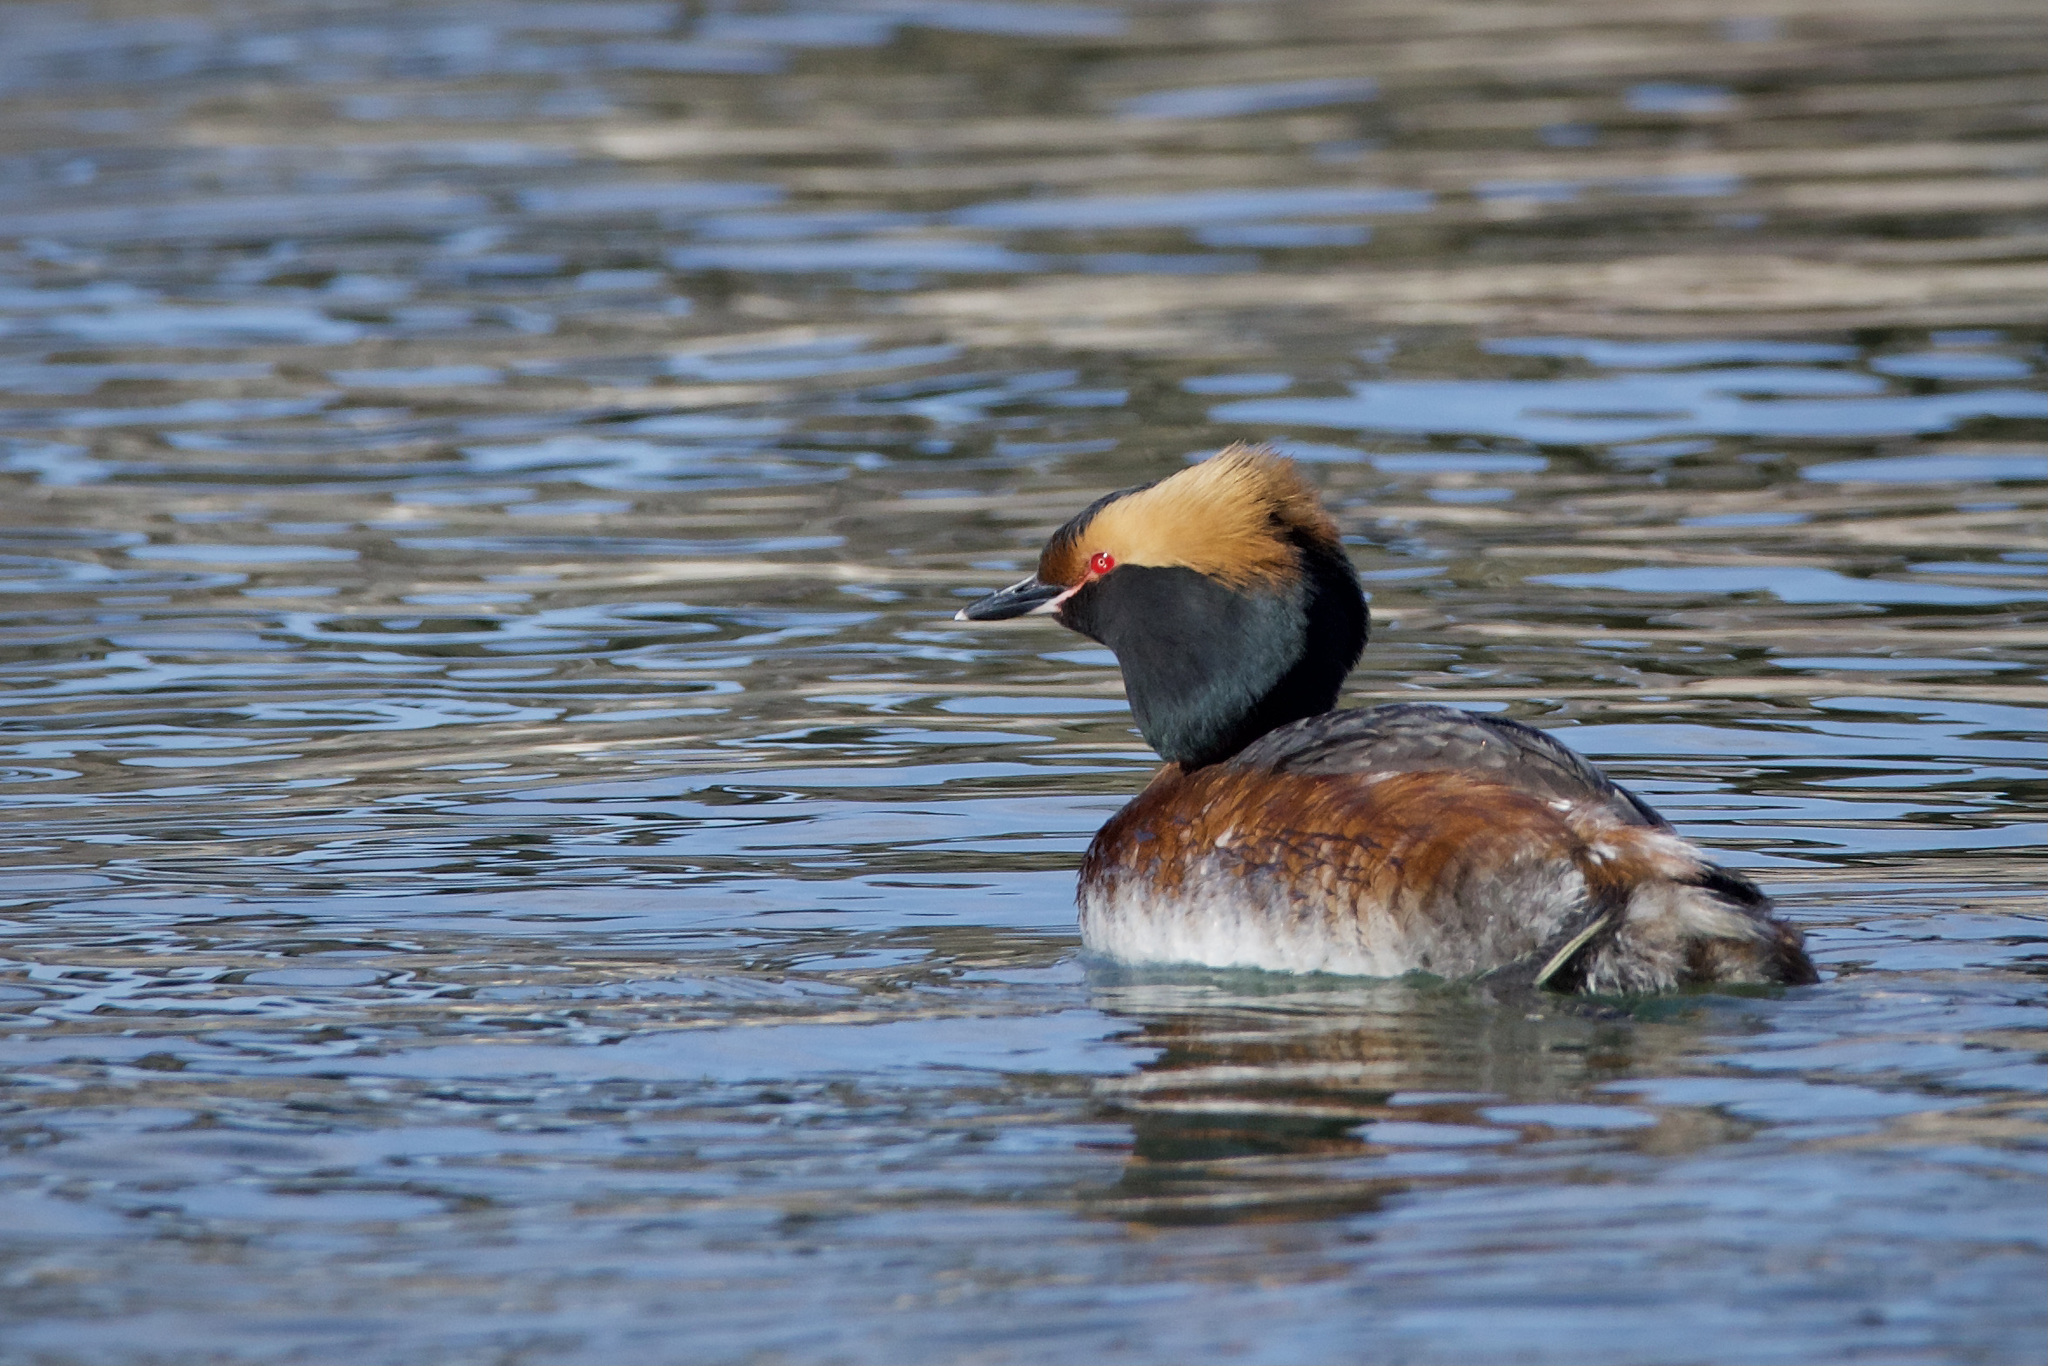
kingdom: Animalia
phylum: Chordata
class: Aves
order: Podicipediformes
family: Podicipedidae
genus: Podiceps
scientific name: Podiceps auritus
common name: Horned grebe
